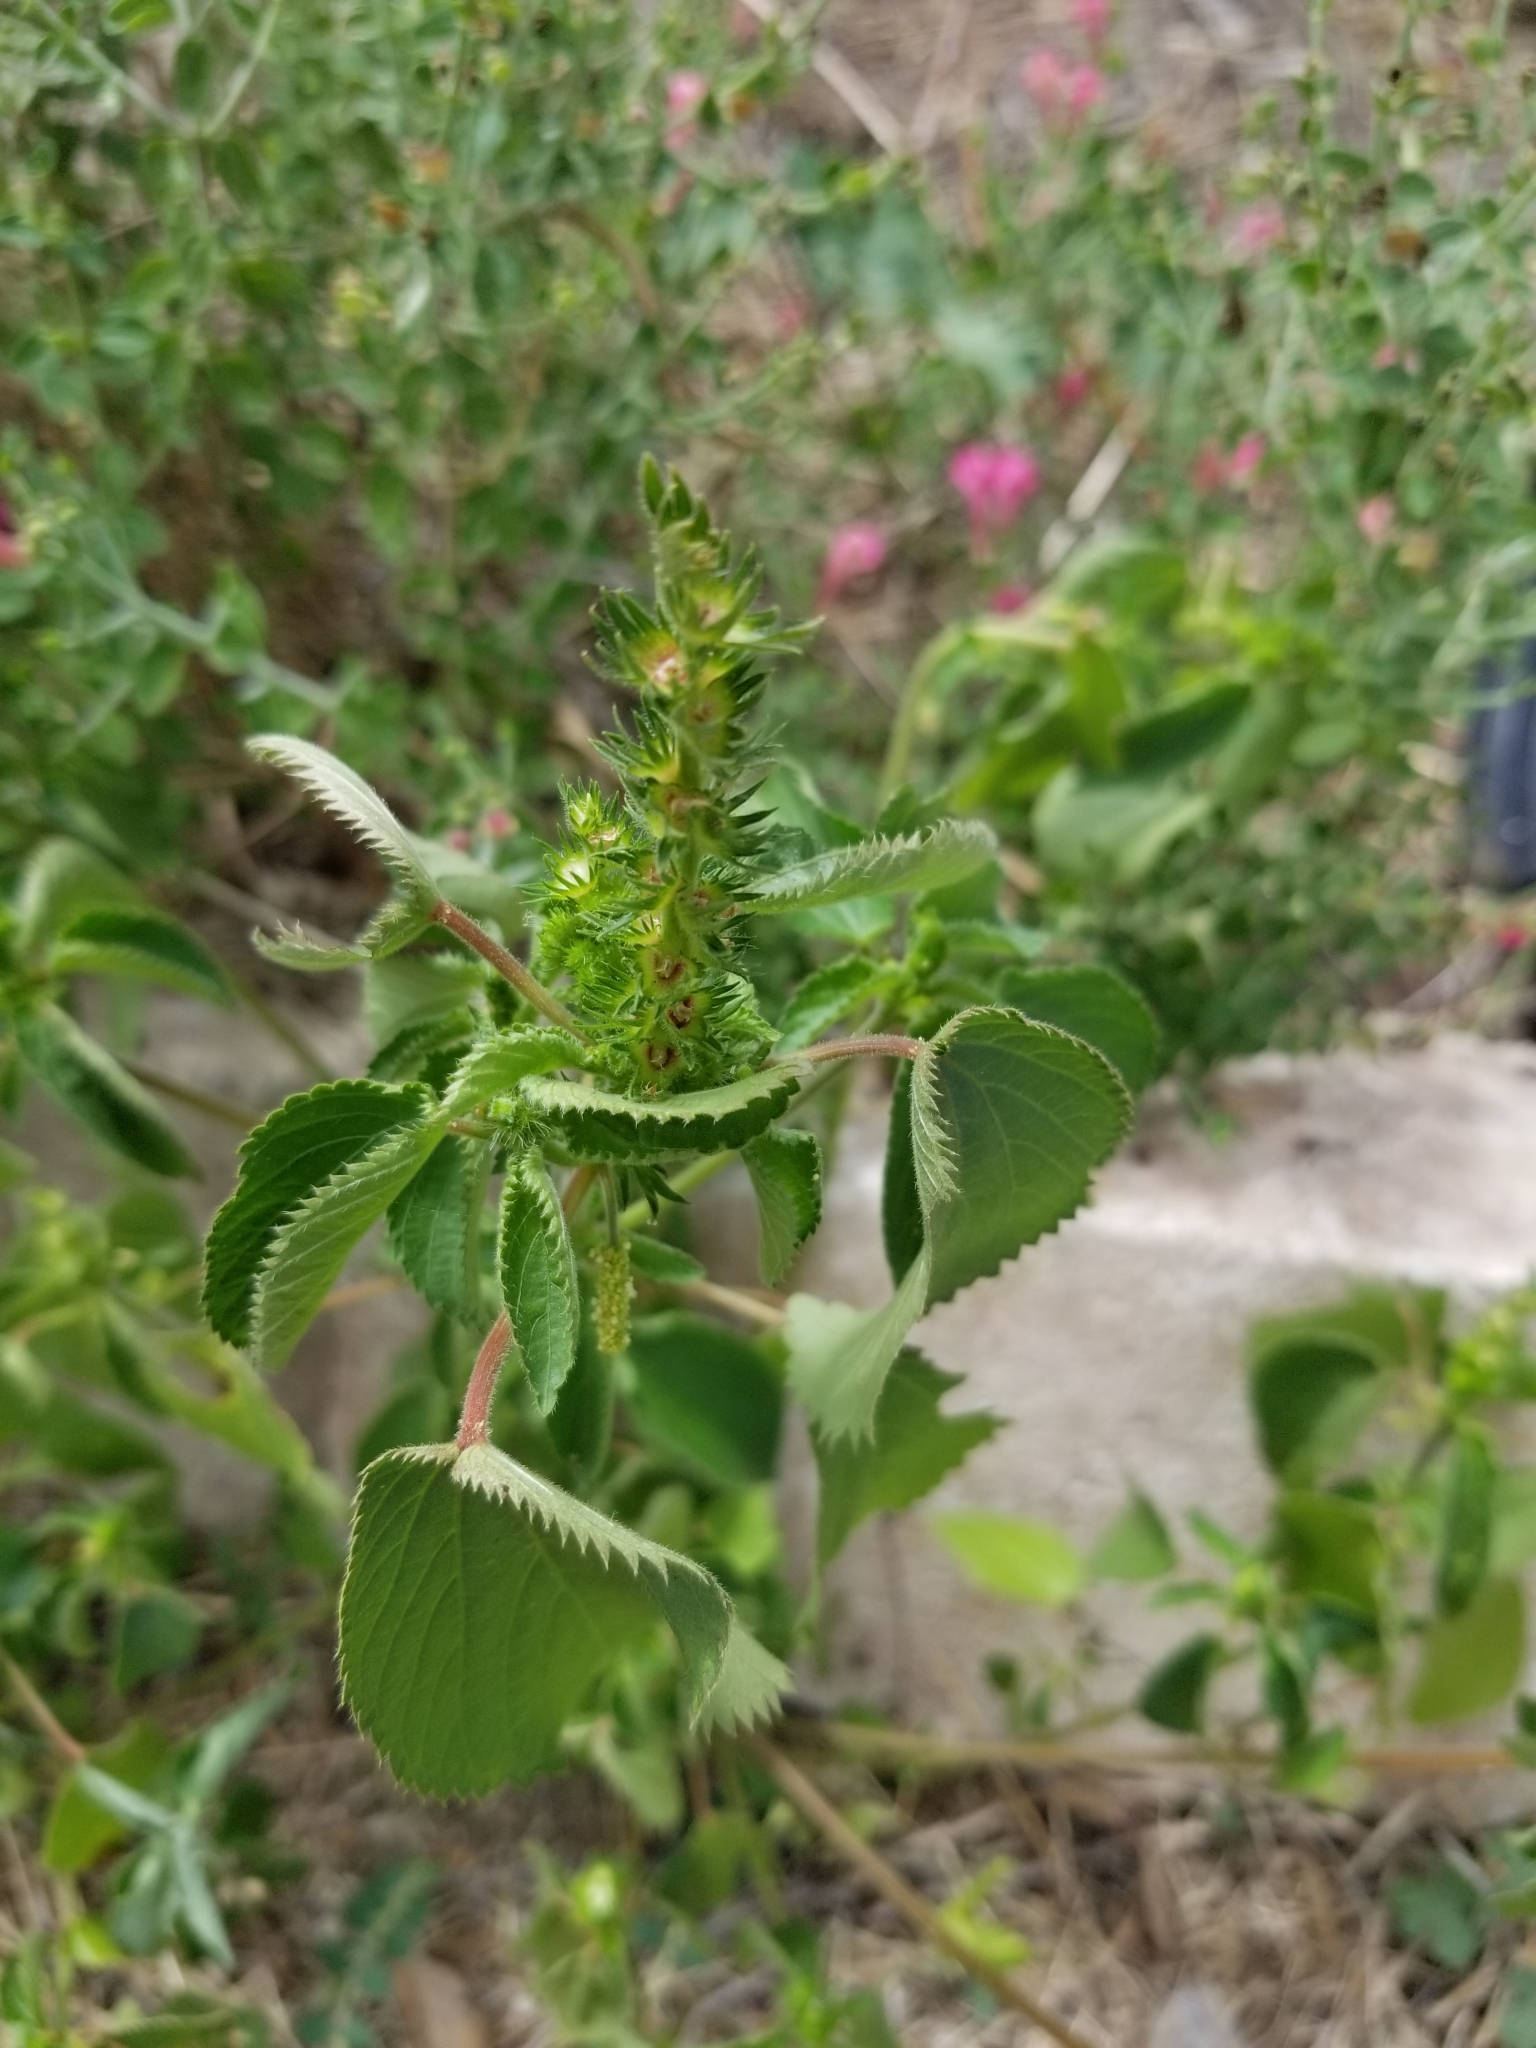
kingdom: Plantae
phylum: Tracheophyta
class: Magnoliopsida
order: Malpighiales
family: Euphorbiaceae
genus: Acalypha
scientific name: Acalypha ostryifolia
